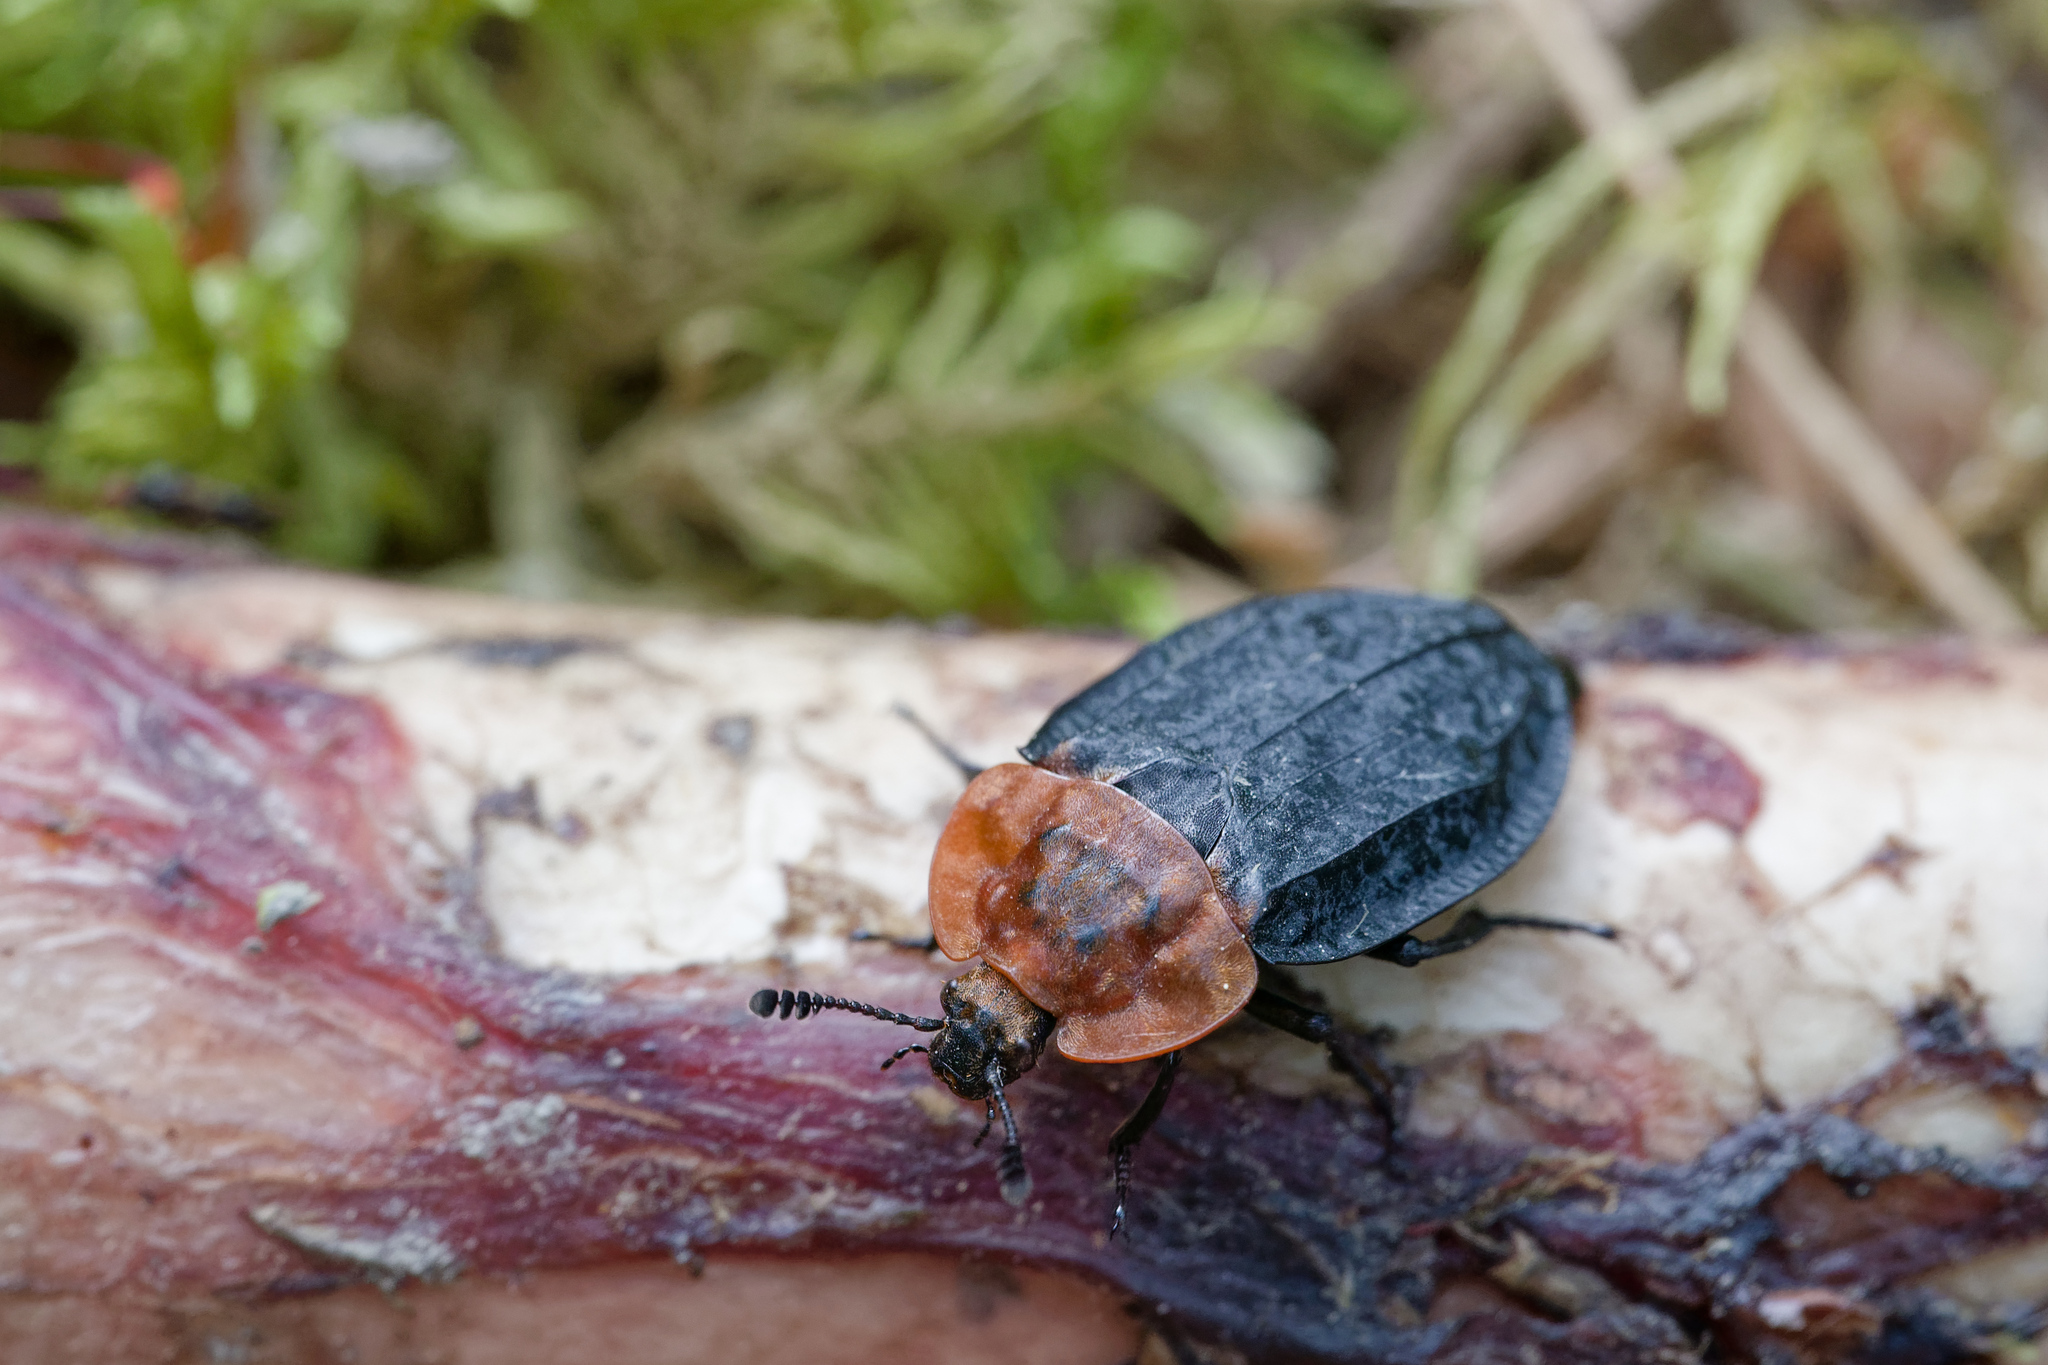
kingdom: Animalia
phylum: Arthropoda
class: Insecta
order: Coleoptera
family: Staphylinidae
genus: Oiceoptoma
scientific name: Oiceoptoma thoracicum
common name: Red-breasted carrion beetle
